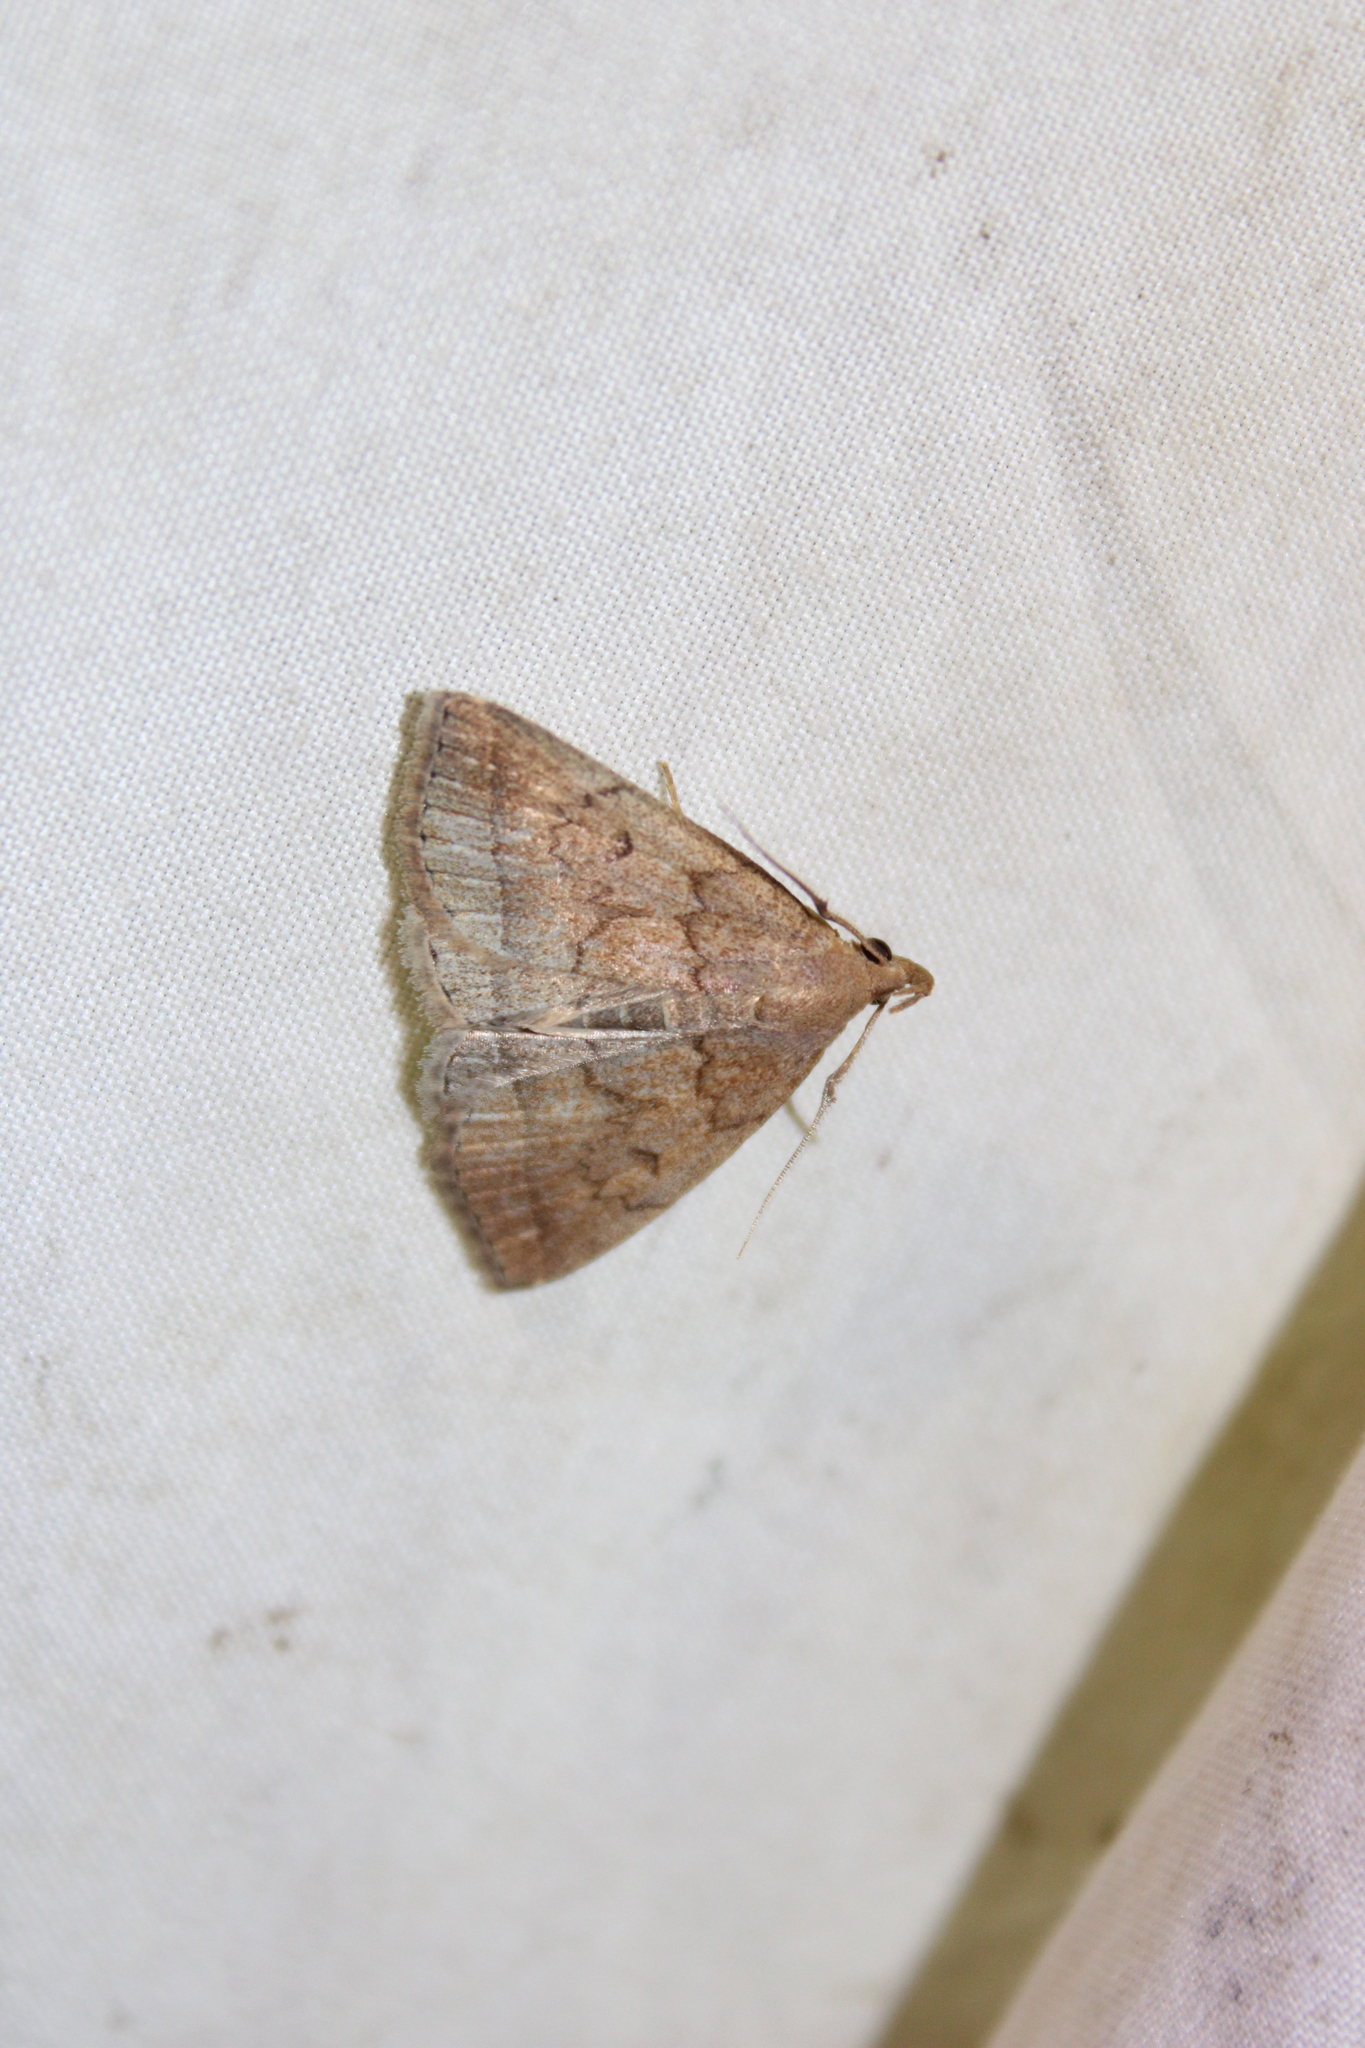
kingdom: Animalia
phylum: Arthropoda
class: Insecta
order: Lepidoptera
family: Erebidae
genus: Zanclognatha
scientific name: Zanclognatha jacchusalis
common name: Yellowish zanclognatha
